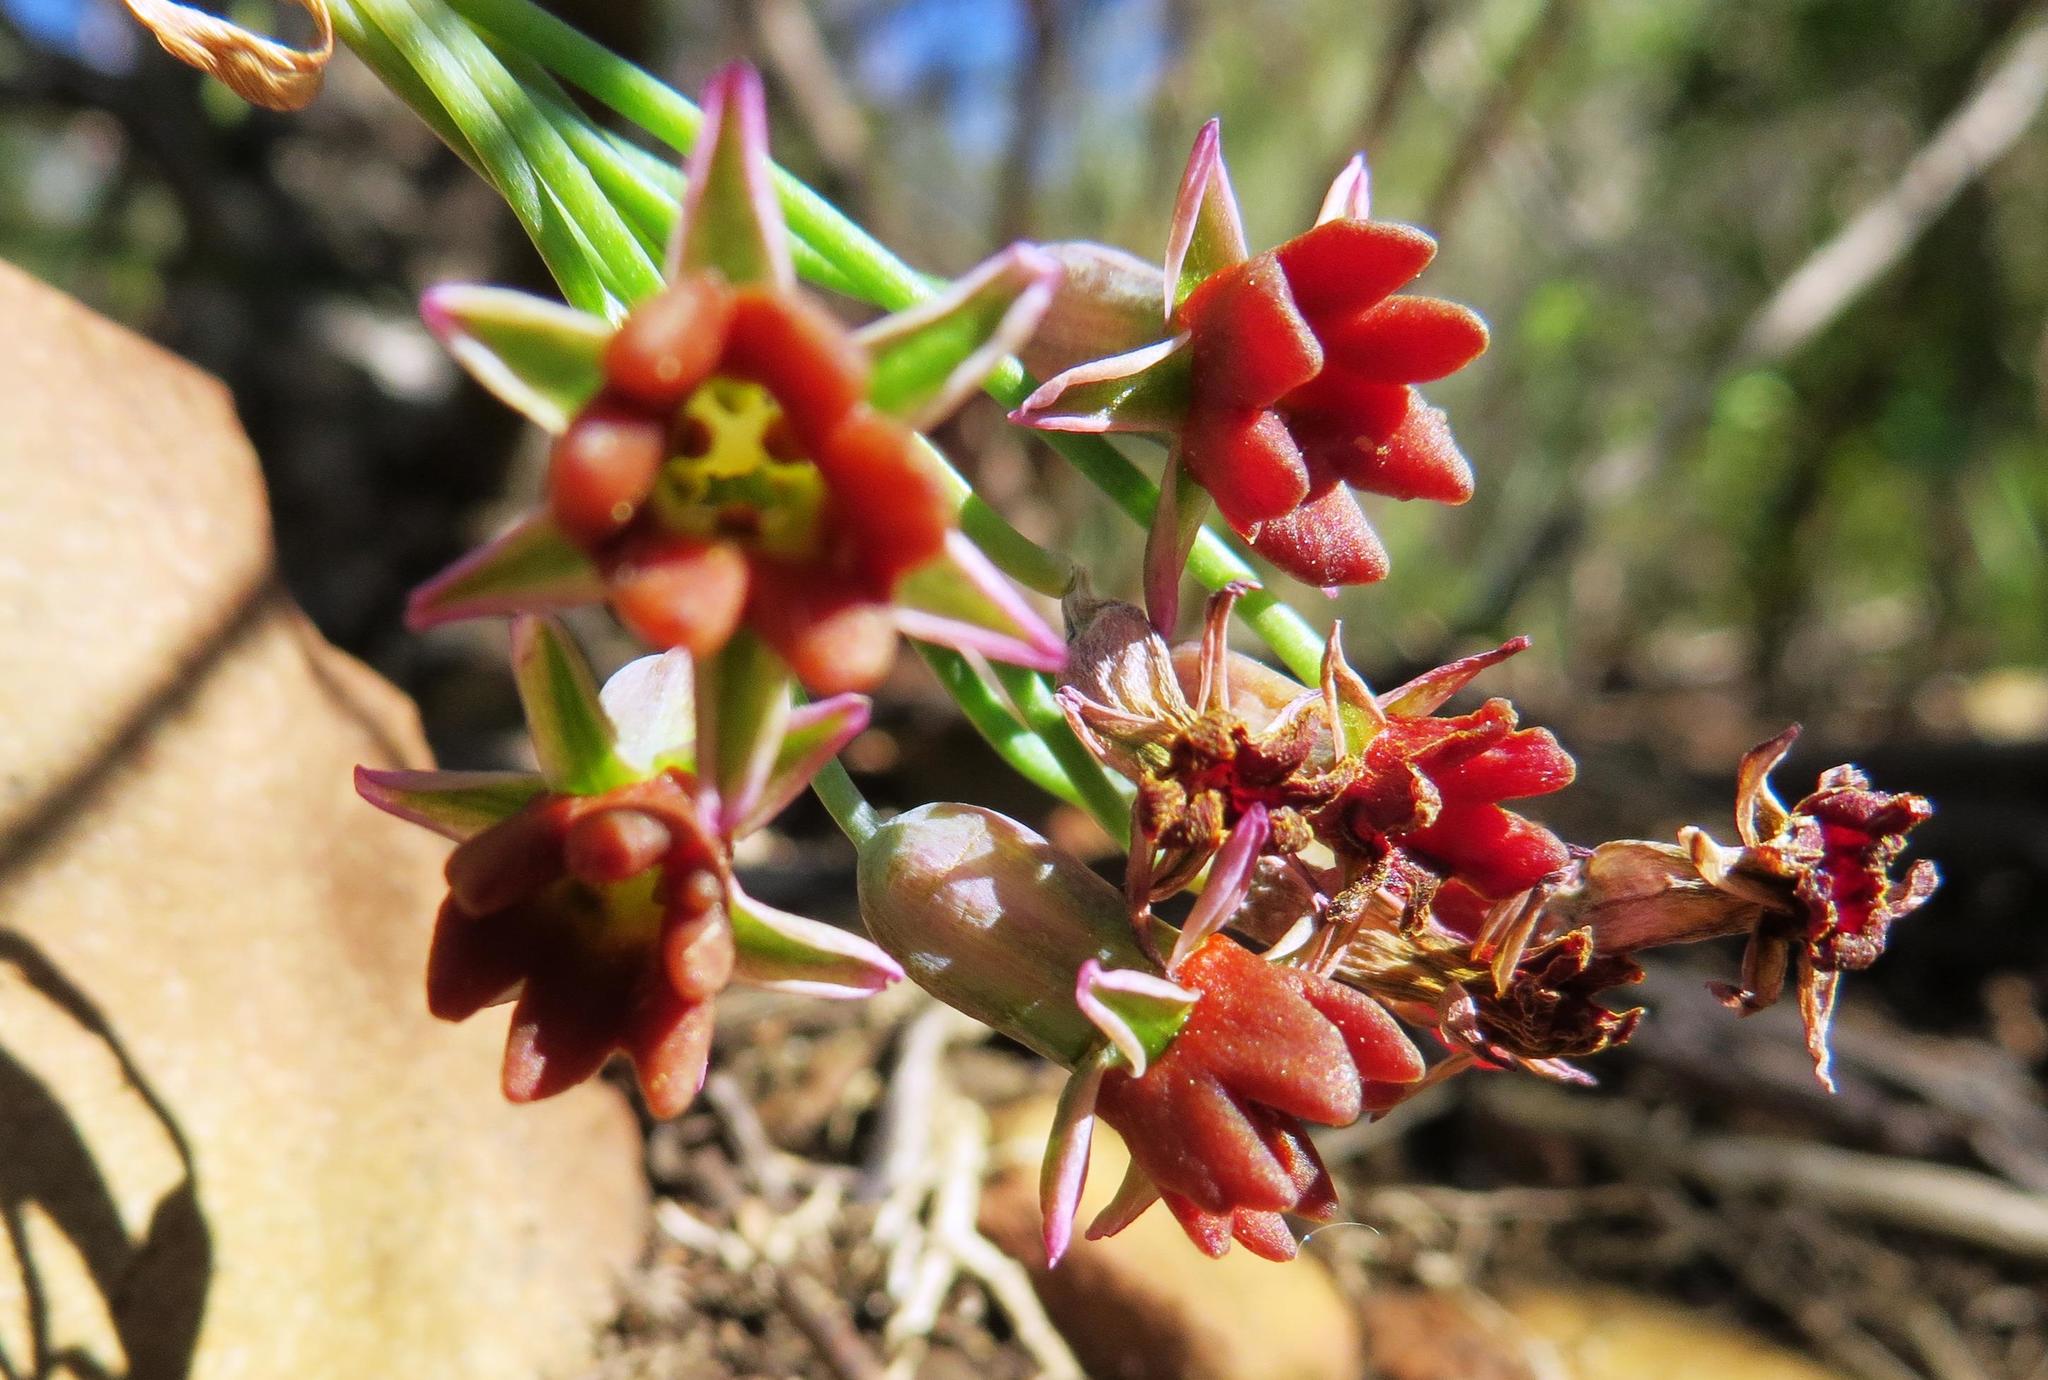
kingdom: Plantae
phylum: Tracheophyta
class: Liliopsida
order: Asparagales
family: Amaryllidaceae
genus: Tulbaghia
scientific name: Tulbaghia capensis
